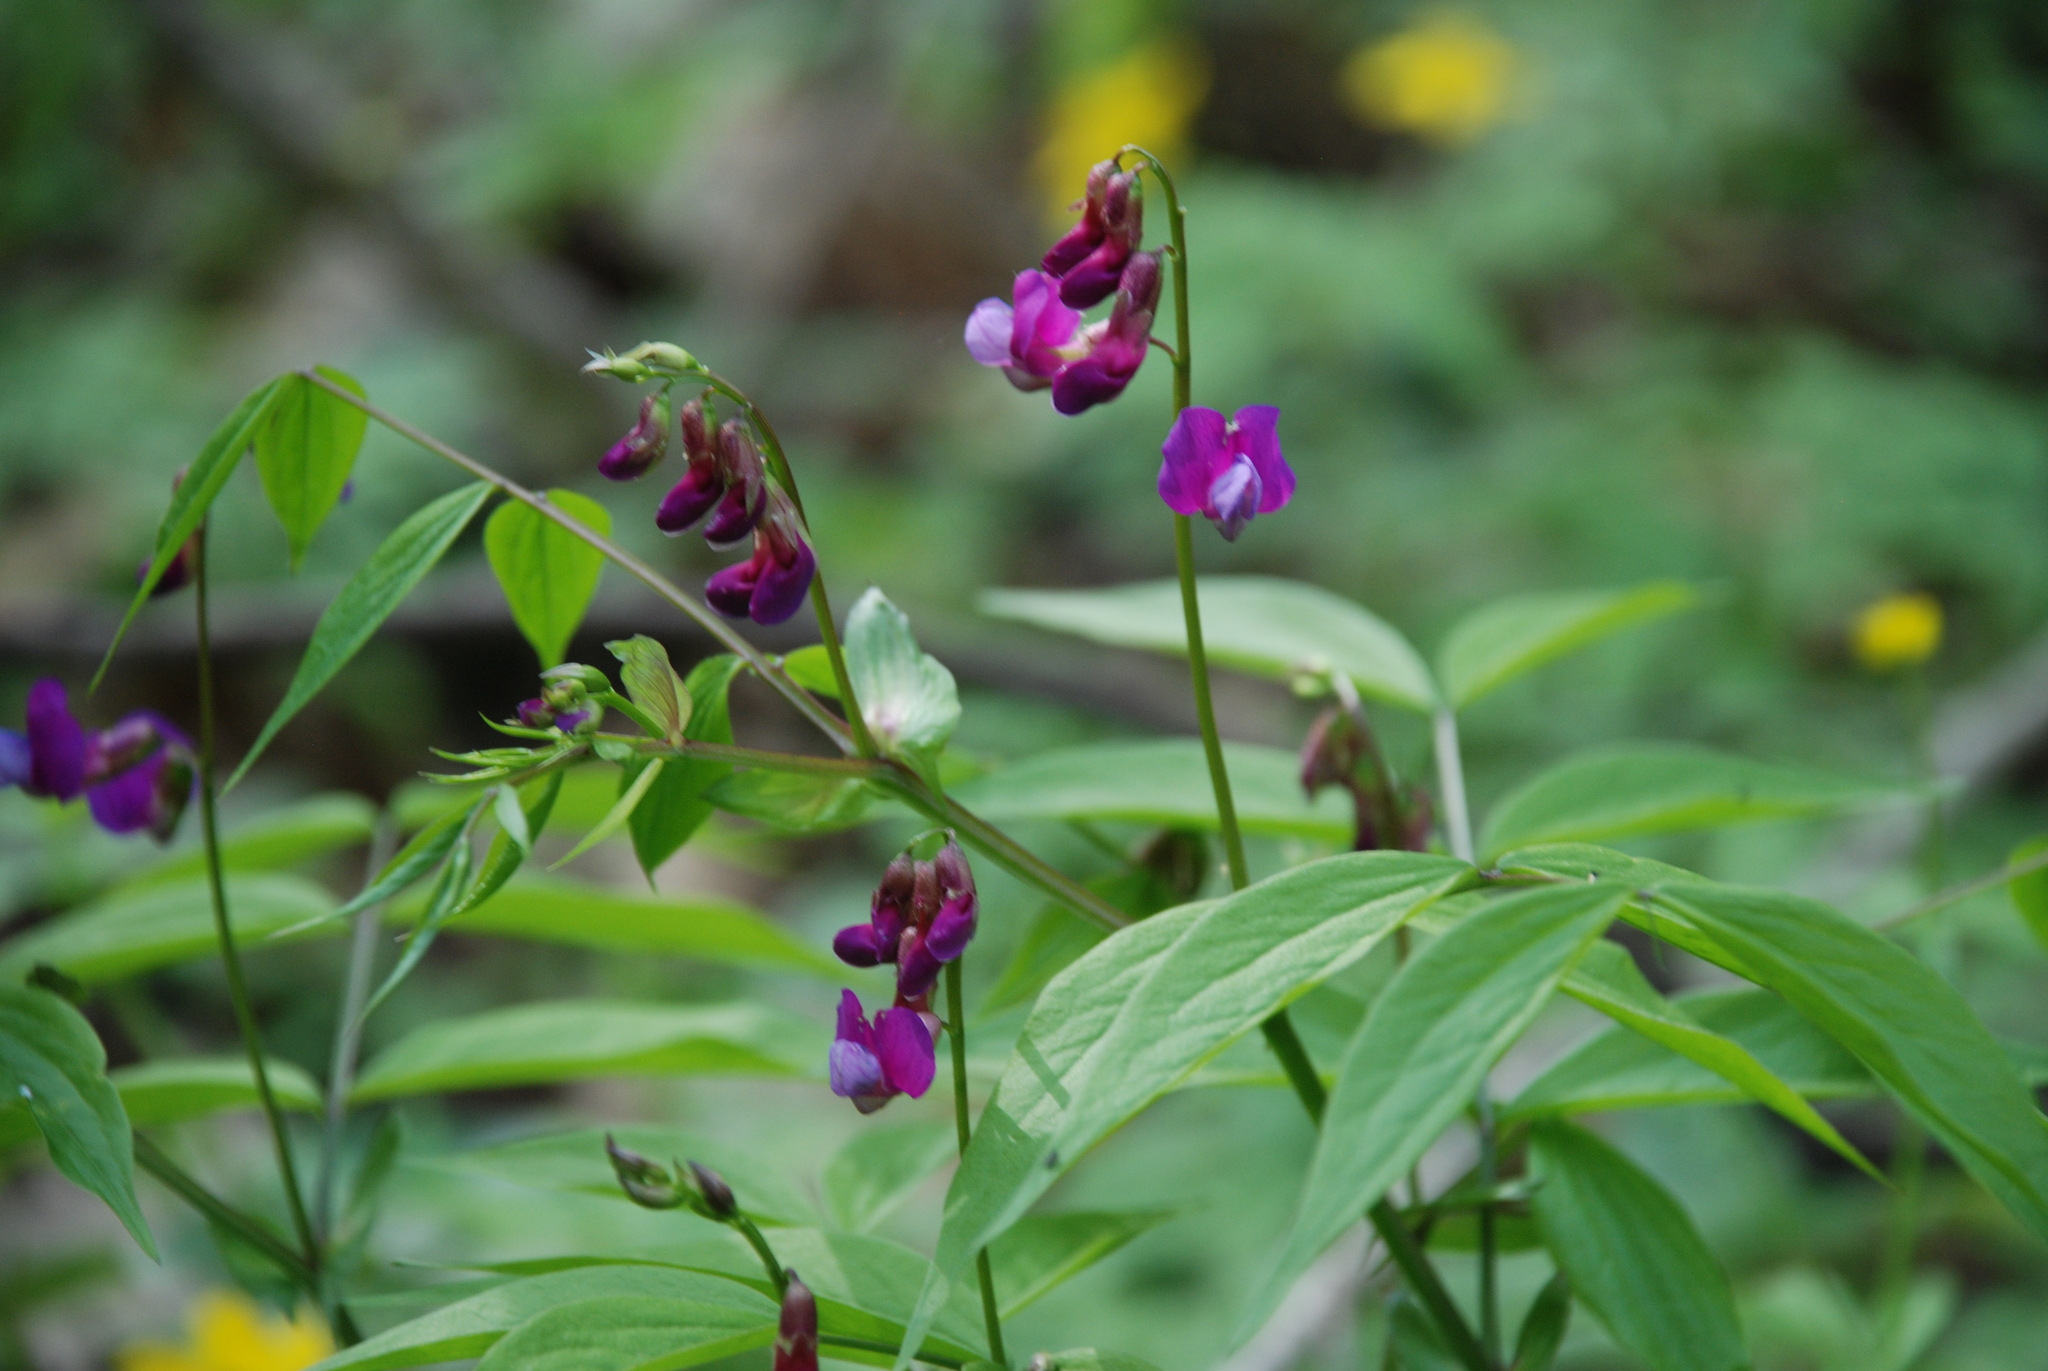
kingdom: Plantae
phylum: Tracheophyta
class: Magnoliopsida
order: Fabales
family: Fabaceae
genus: Lathyrus
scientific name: Lathyrus vernus
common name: Spring pea
